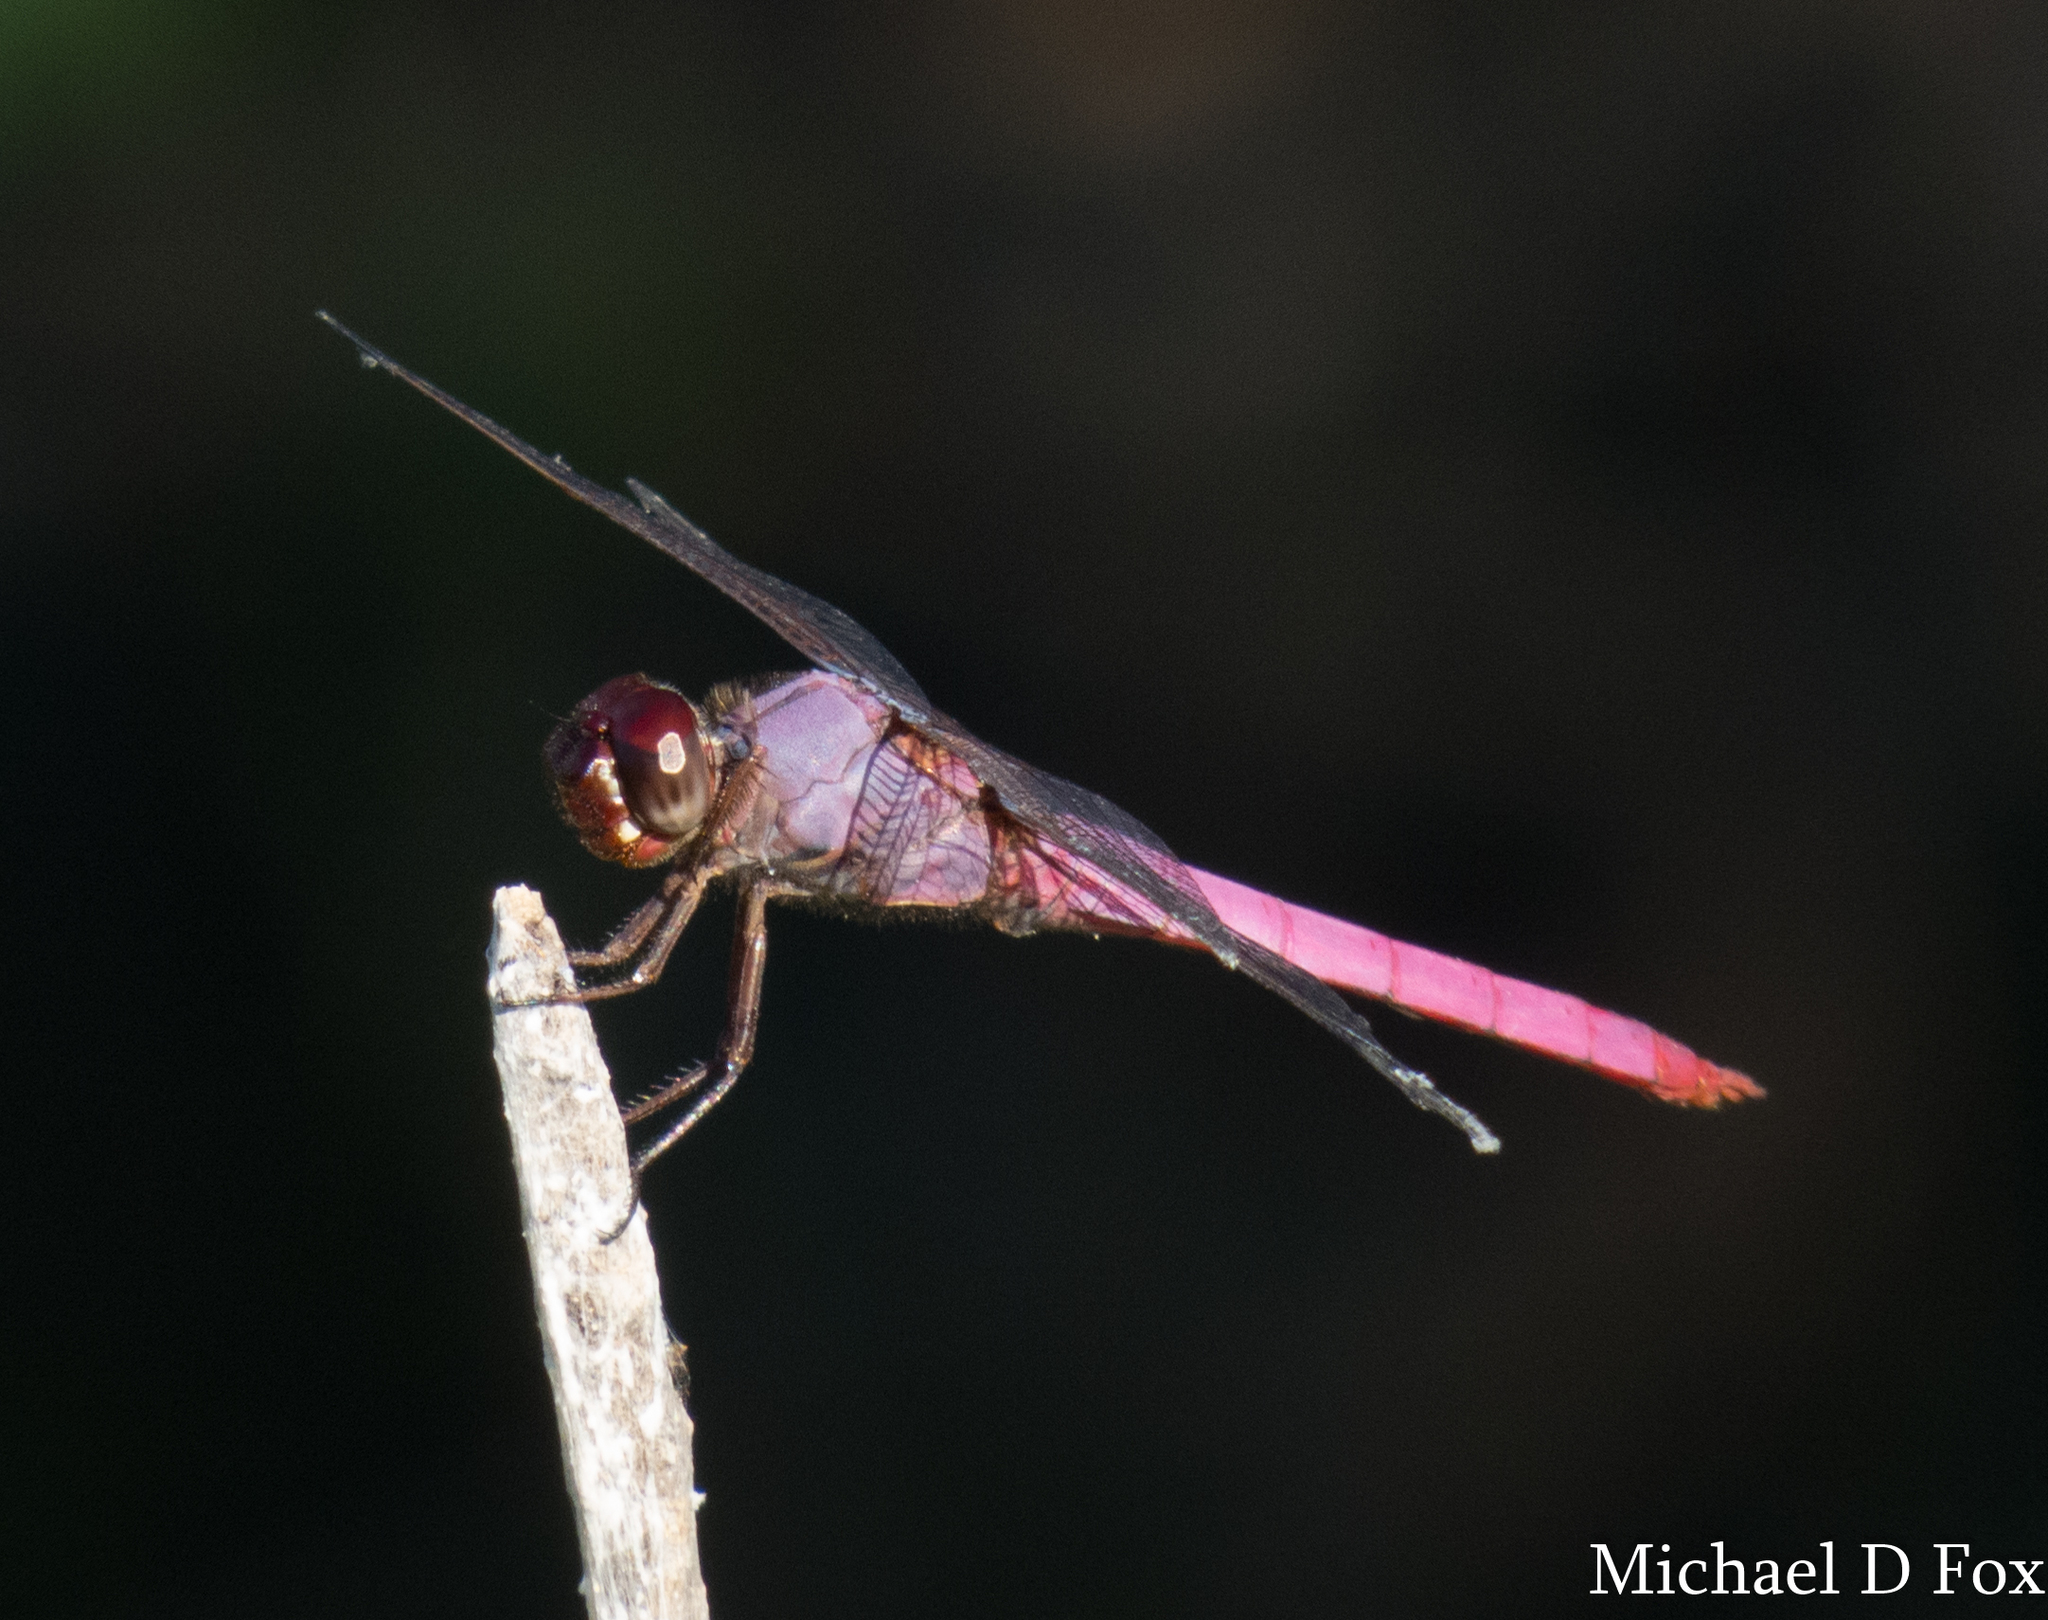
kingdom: Animalia
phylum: Arthropoda
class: Insecta
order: Odonata
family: Libellulidae
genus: Orthemis
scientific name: Orthemis ferruginea
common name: Roseate skimmer
